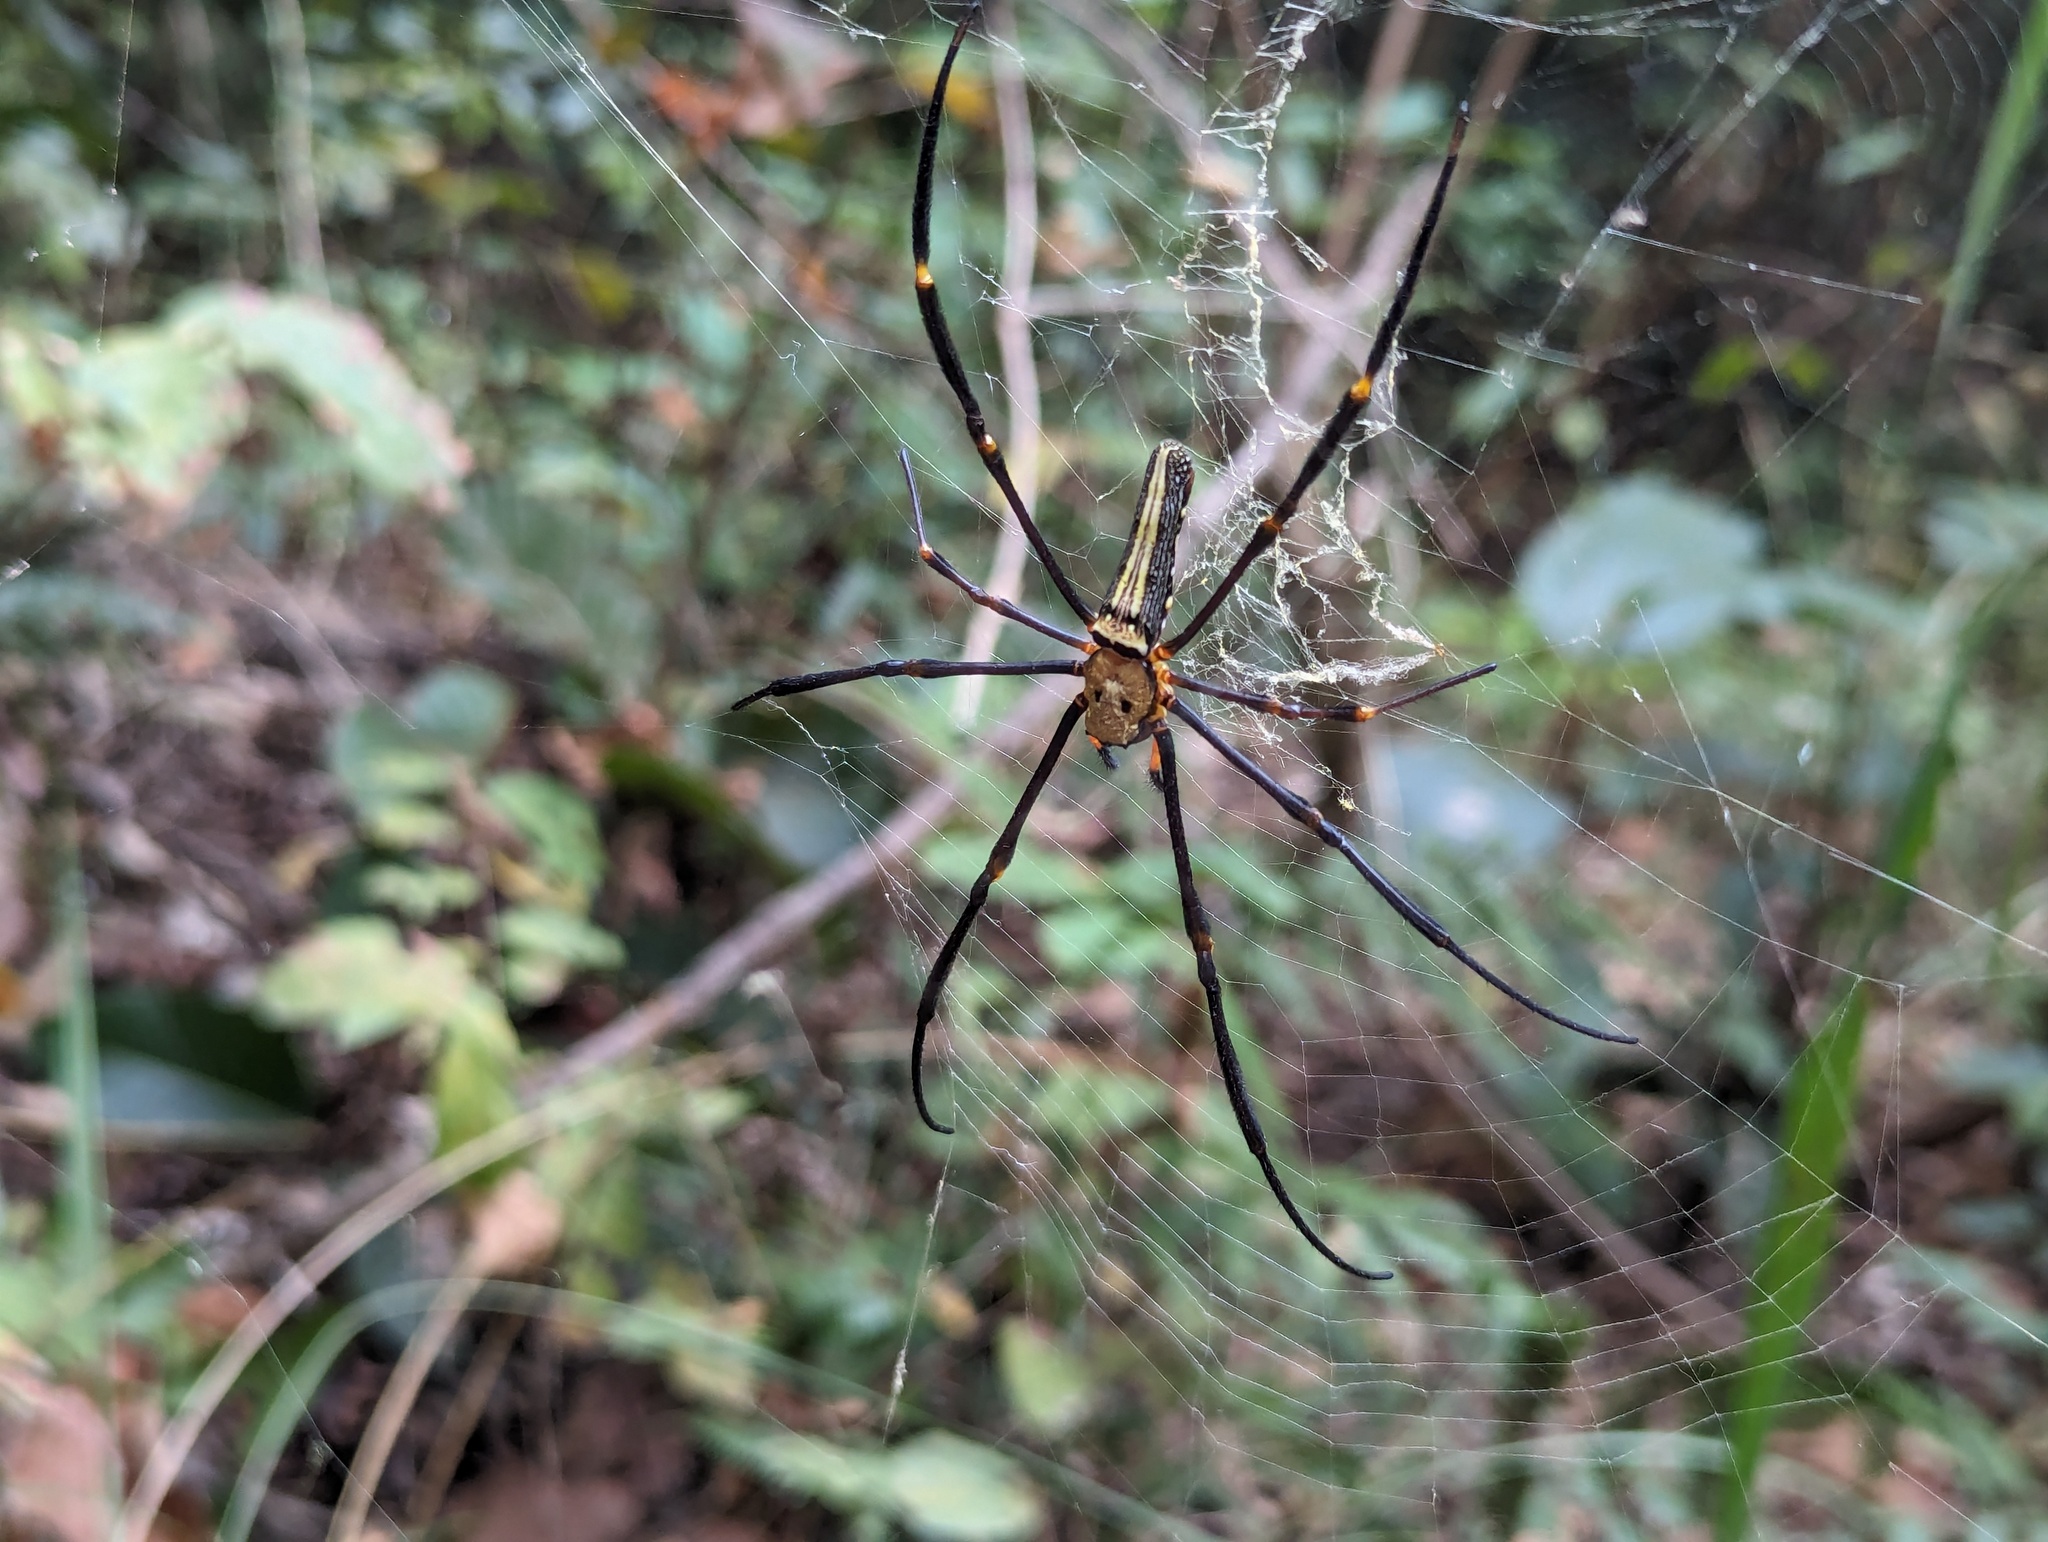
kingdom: Animalia
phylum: Arthropoda
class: Arachnida
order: Araneae
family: Araneidae
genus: Nephila
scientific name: Nephila pilipes
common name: Giant golden orb weaver
